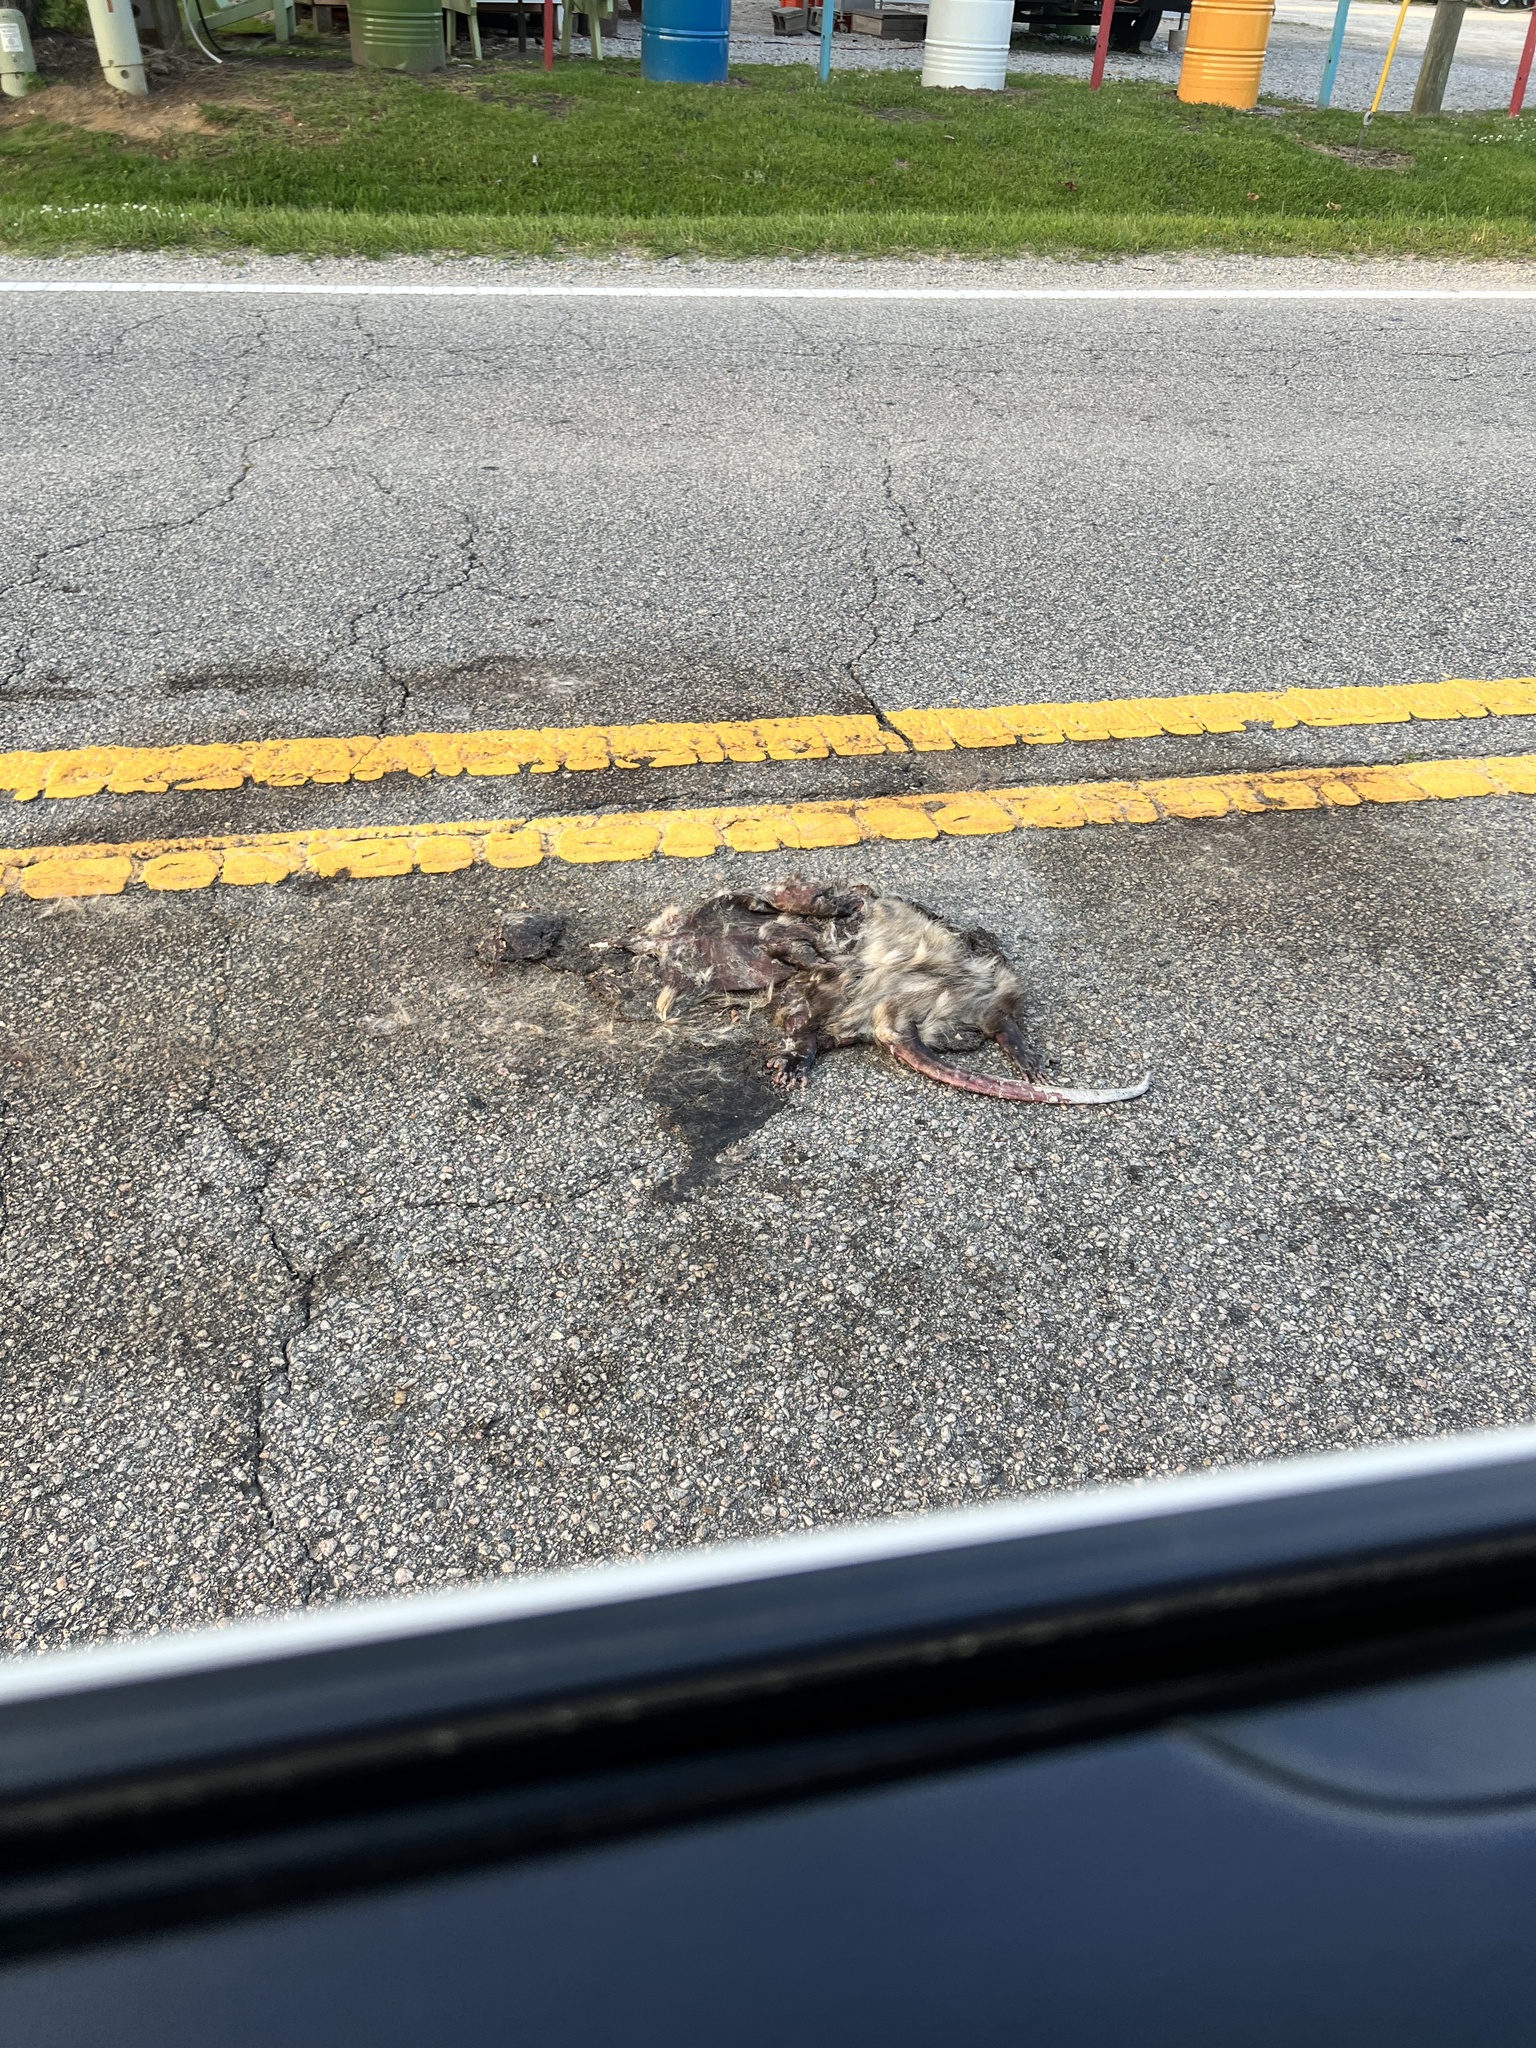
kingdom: Animalia
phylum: Chordata
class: Mammalia
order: Didelphimorphia
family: Didelphidae
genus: Didelphis
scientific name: Didelphis virginiana
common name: Virginia opossum
